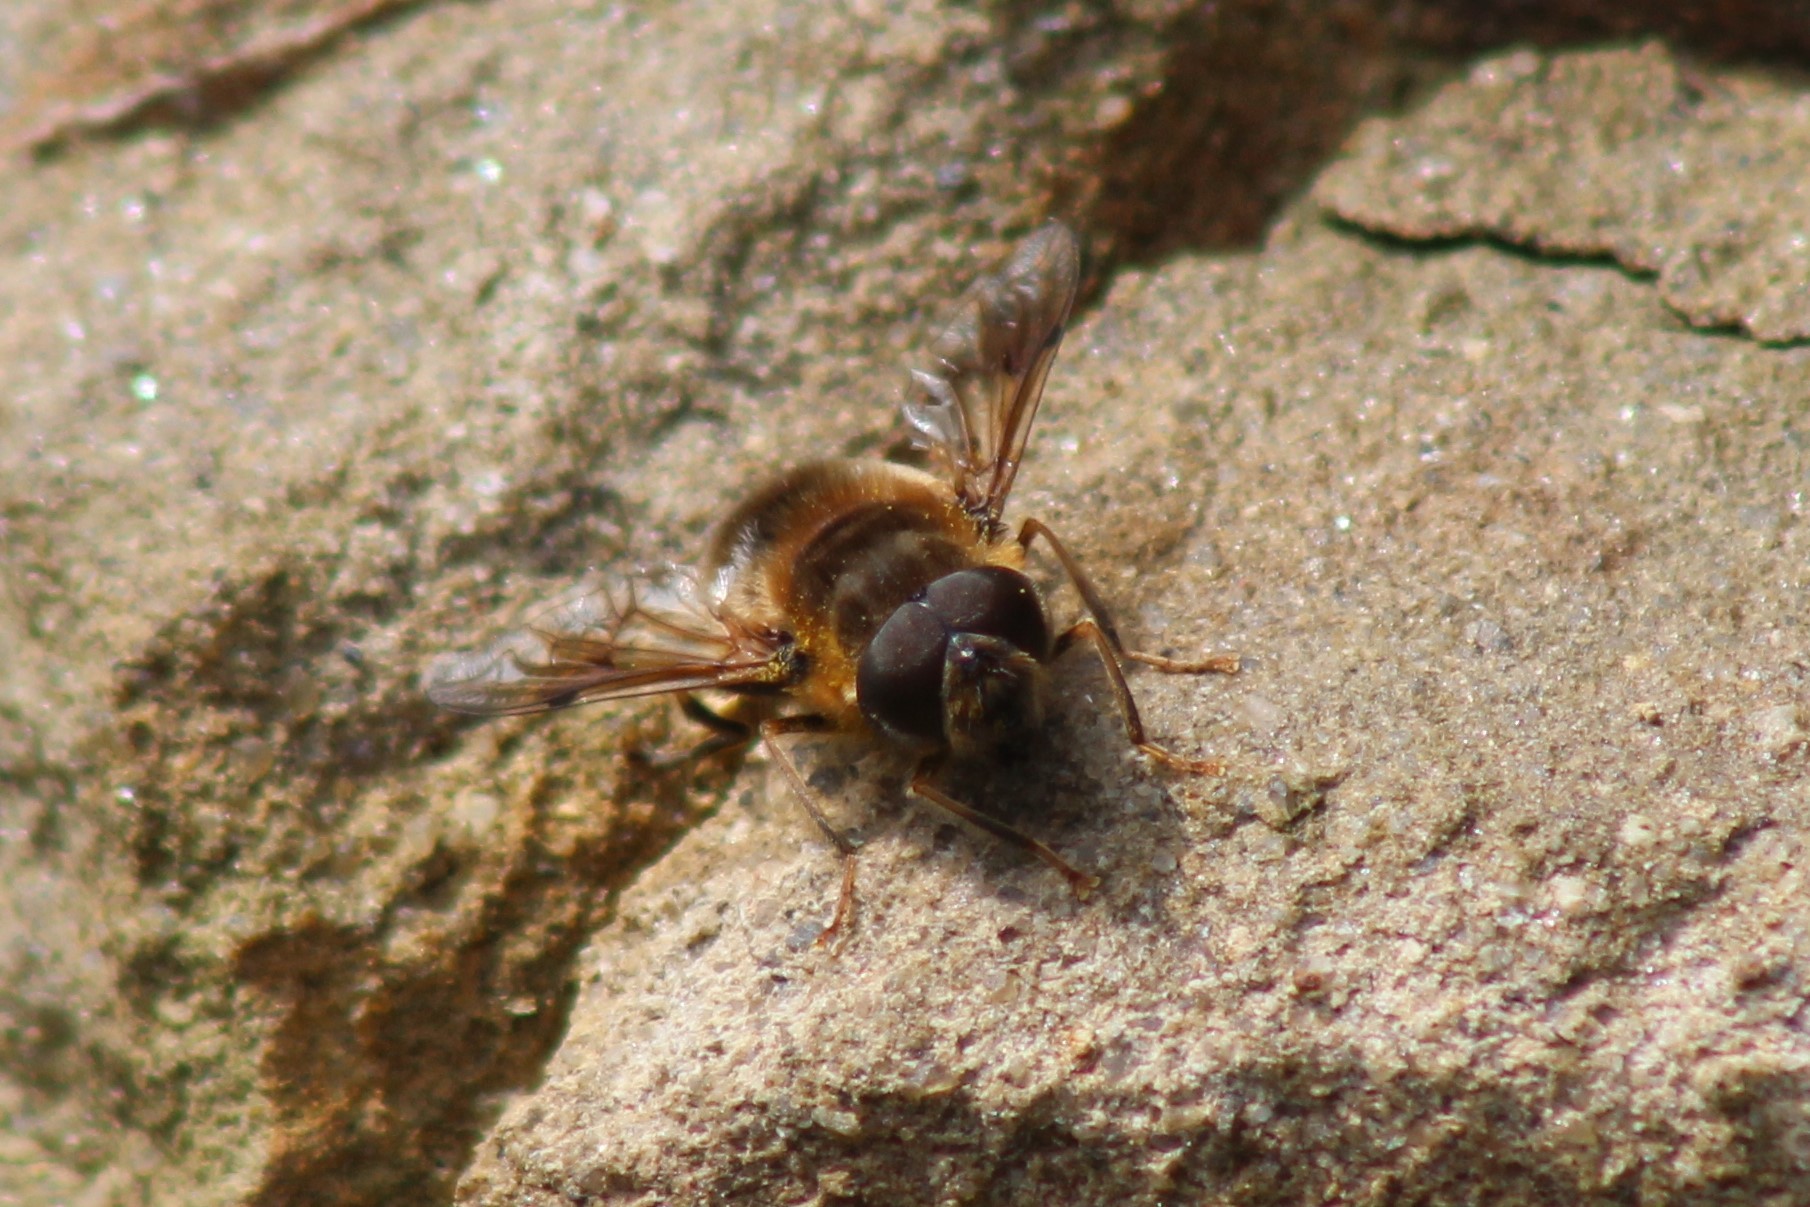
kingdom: Animalia
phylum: Arthropoda
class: Insecta
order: Diptera
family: Syrphidae
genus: Eristalis
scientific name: Eristalis pertinax
